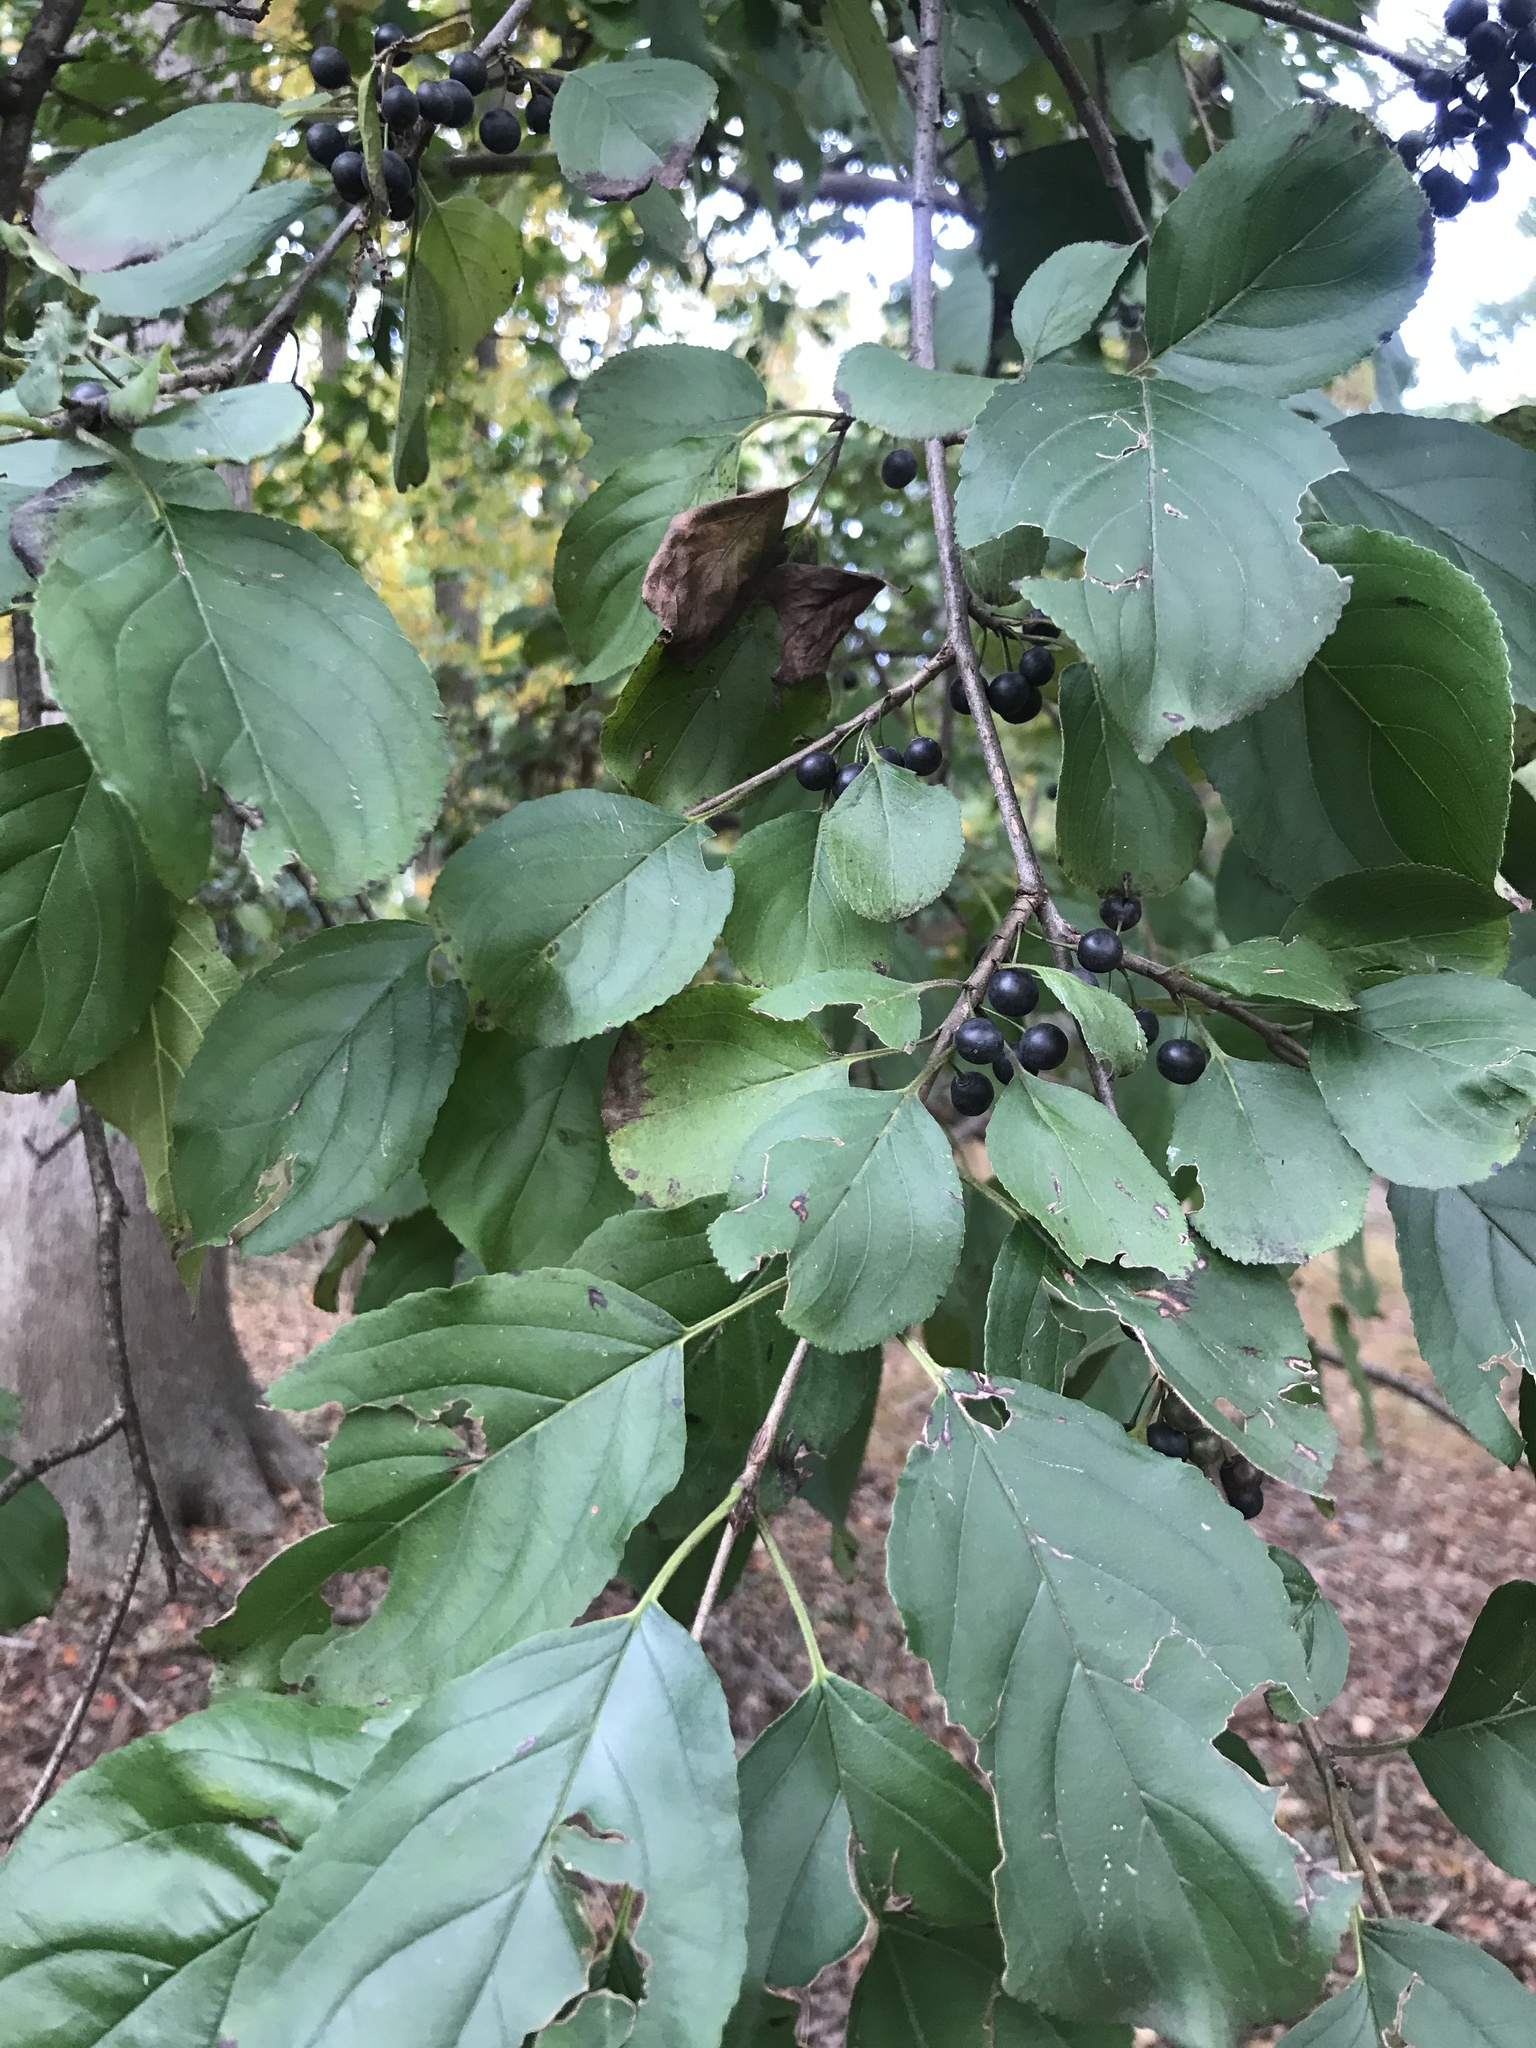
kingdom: Plantae
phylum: Tracheophyta
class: Magnoliopsida
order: Rosales
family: Rhamnaceae
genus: Rhamnus
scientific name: Rhamnus cathartica
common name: Common buckthorn
